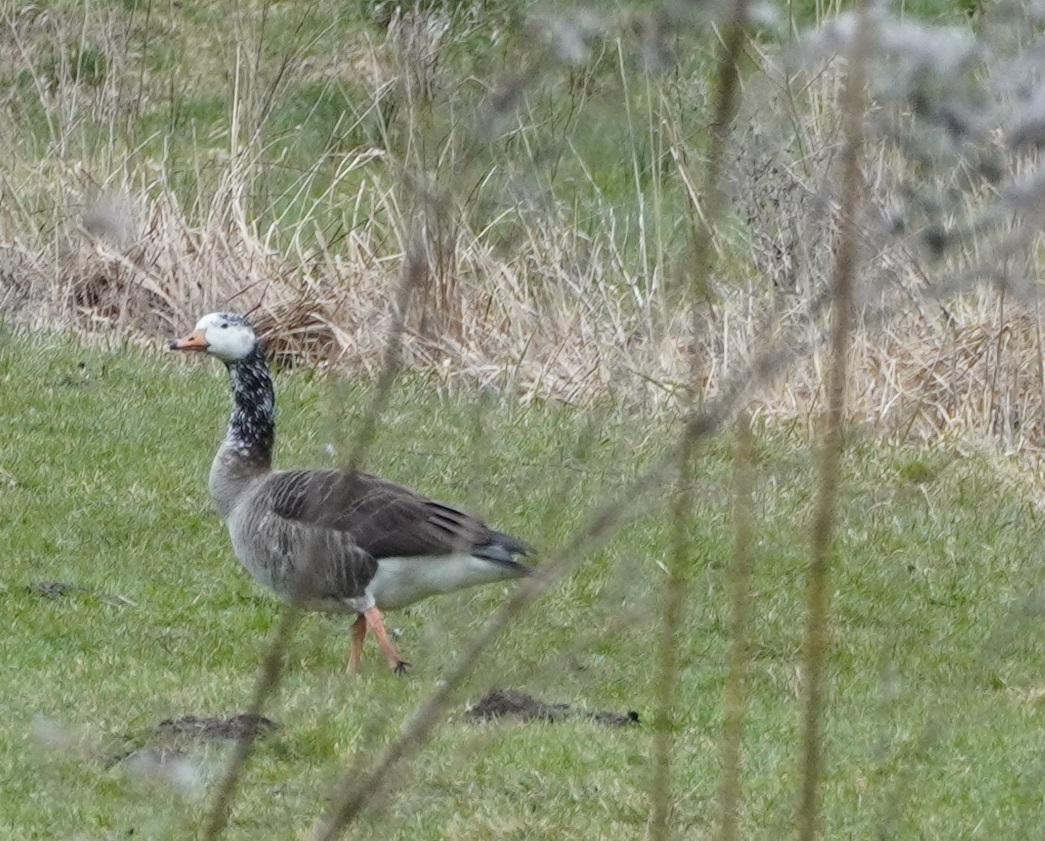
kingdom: Animalia
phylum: Chordata
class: Aves
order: Anseriformes
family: Anatidae
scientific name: Anatidae
